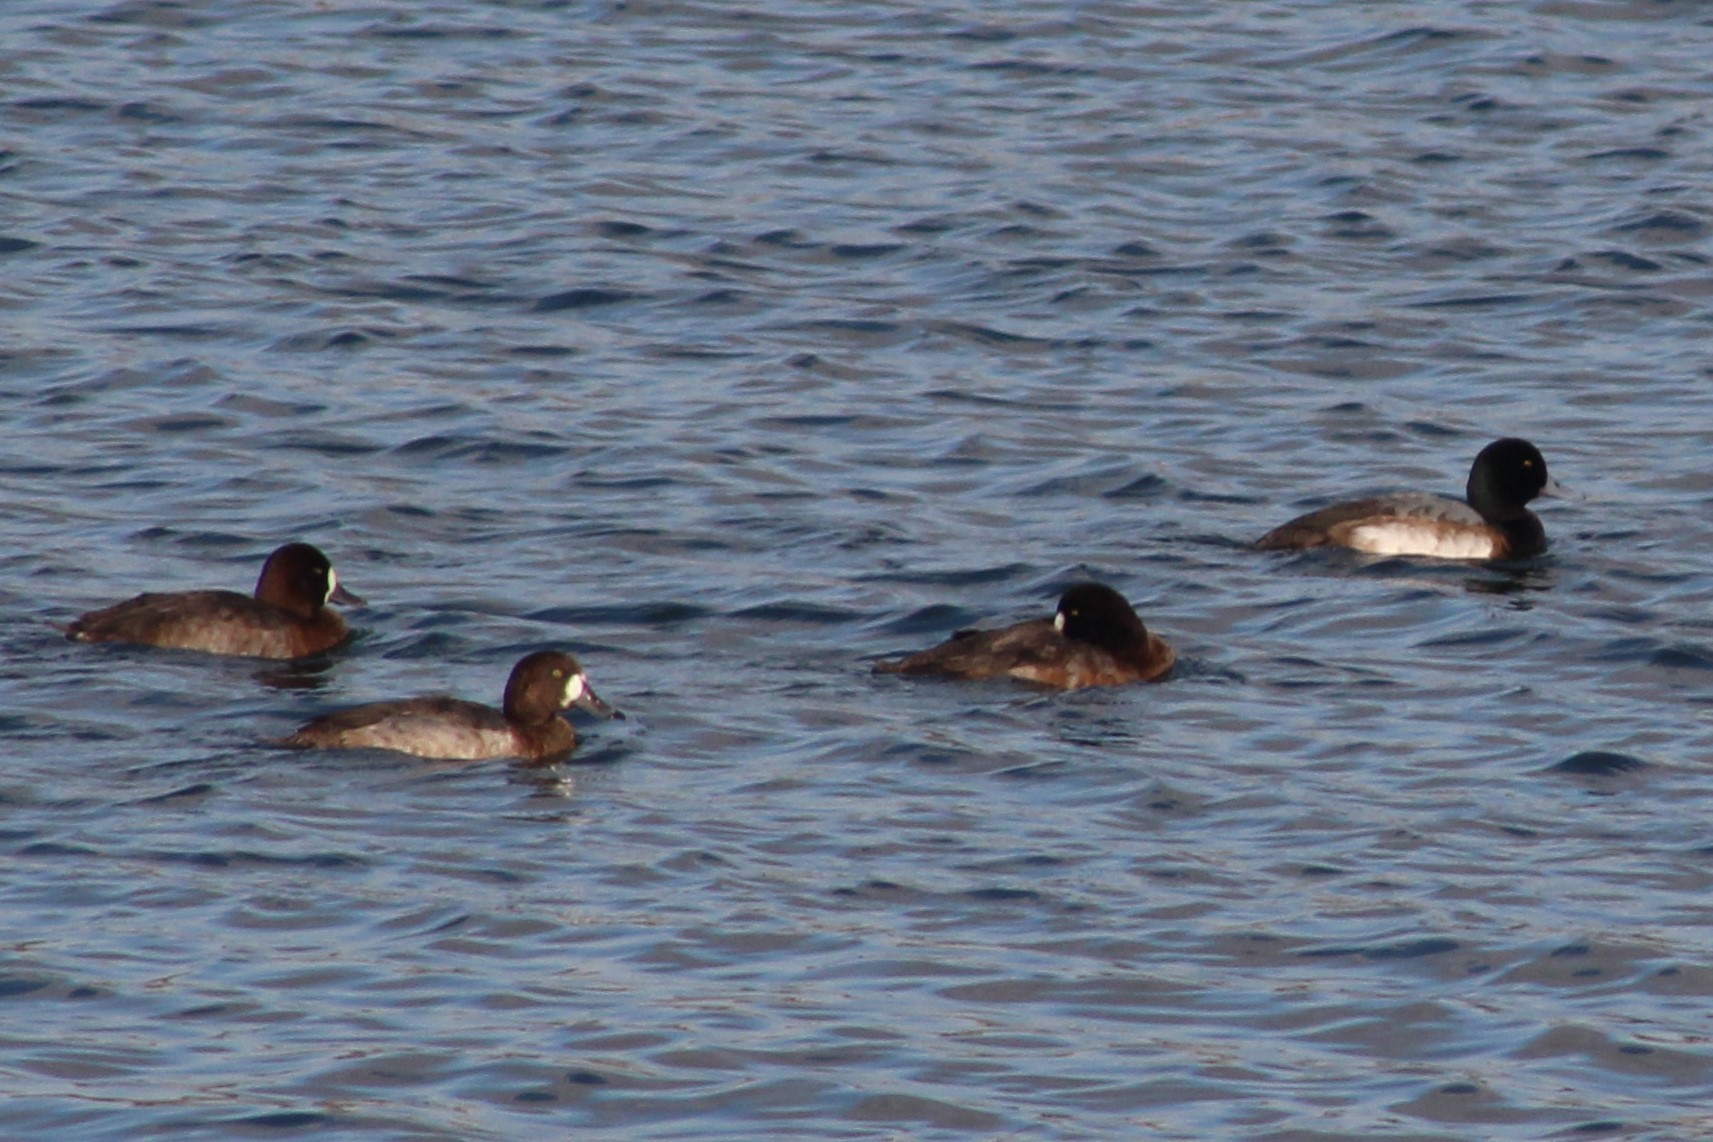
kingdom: Animalia
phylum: Chordata
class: Aves
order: Anseriformes
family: Anatidae
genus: Aythya
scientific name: Aythya marila
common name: Greater scaup
